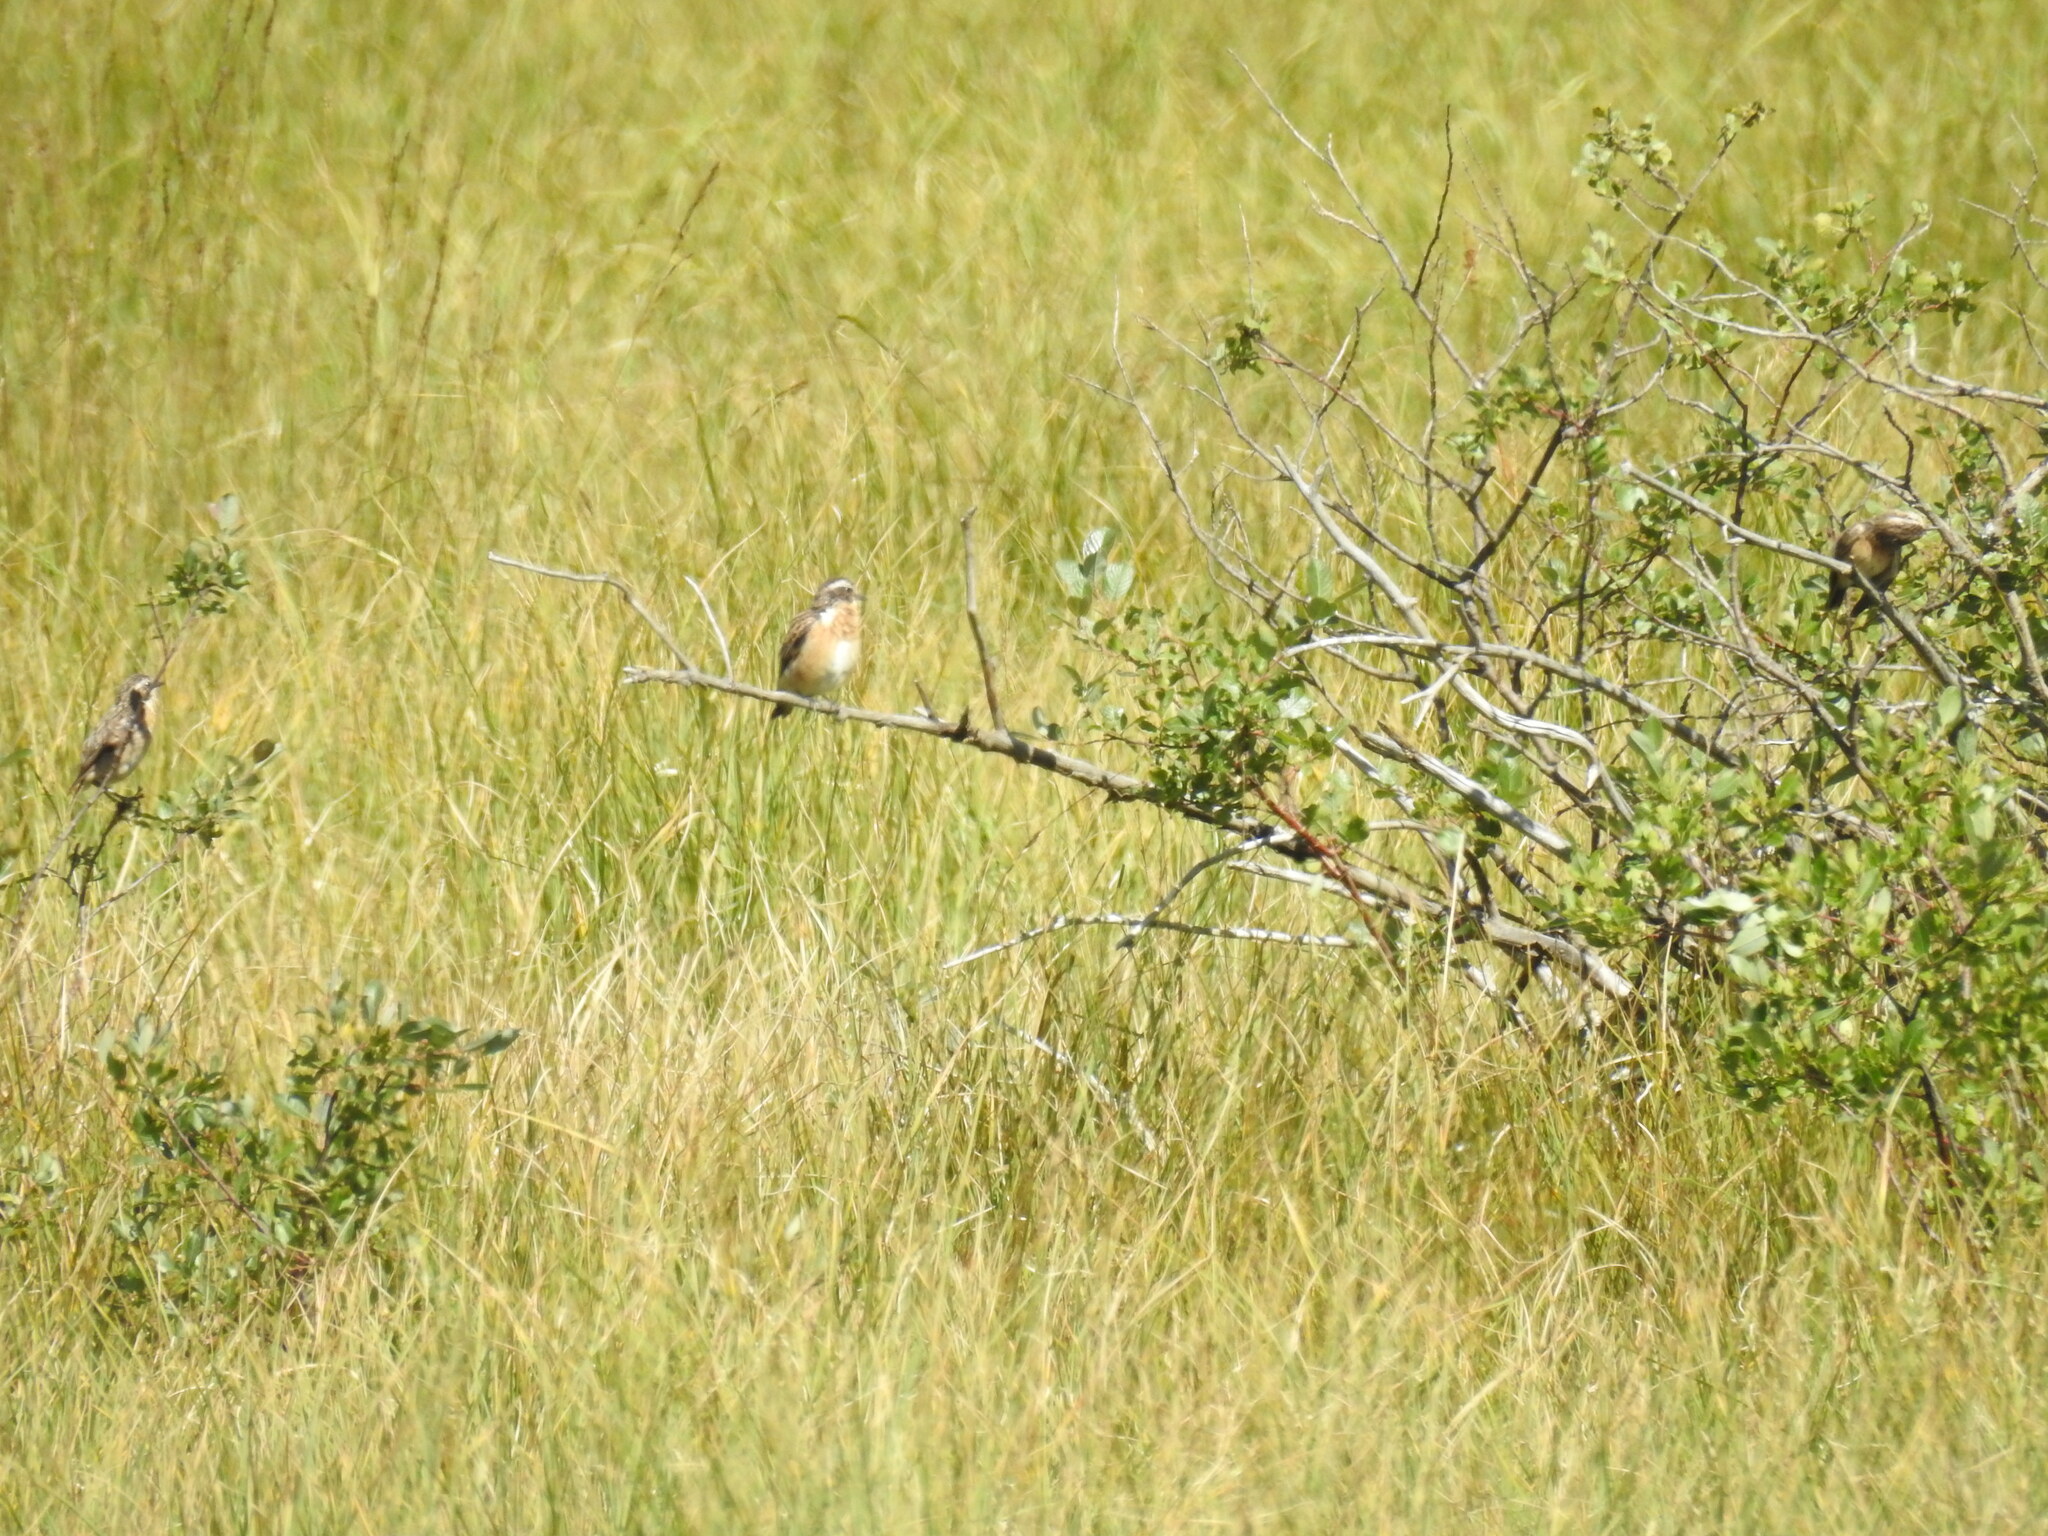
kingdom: Animalia
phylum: Chordata
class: Aves
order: Passeriformes
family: Muscicapidae
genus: Saxicola
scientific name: Saxicola rubetra
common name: Whinchat
